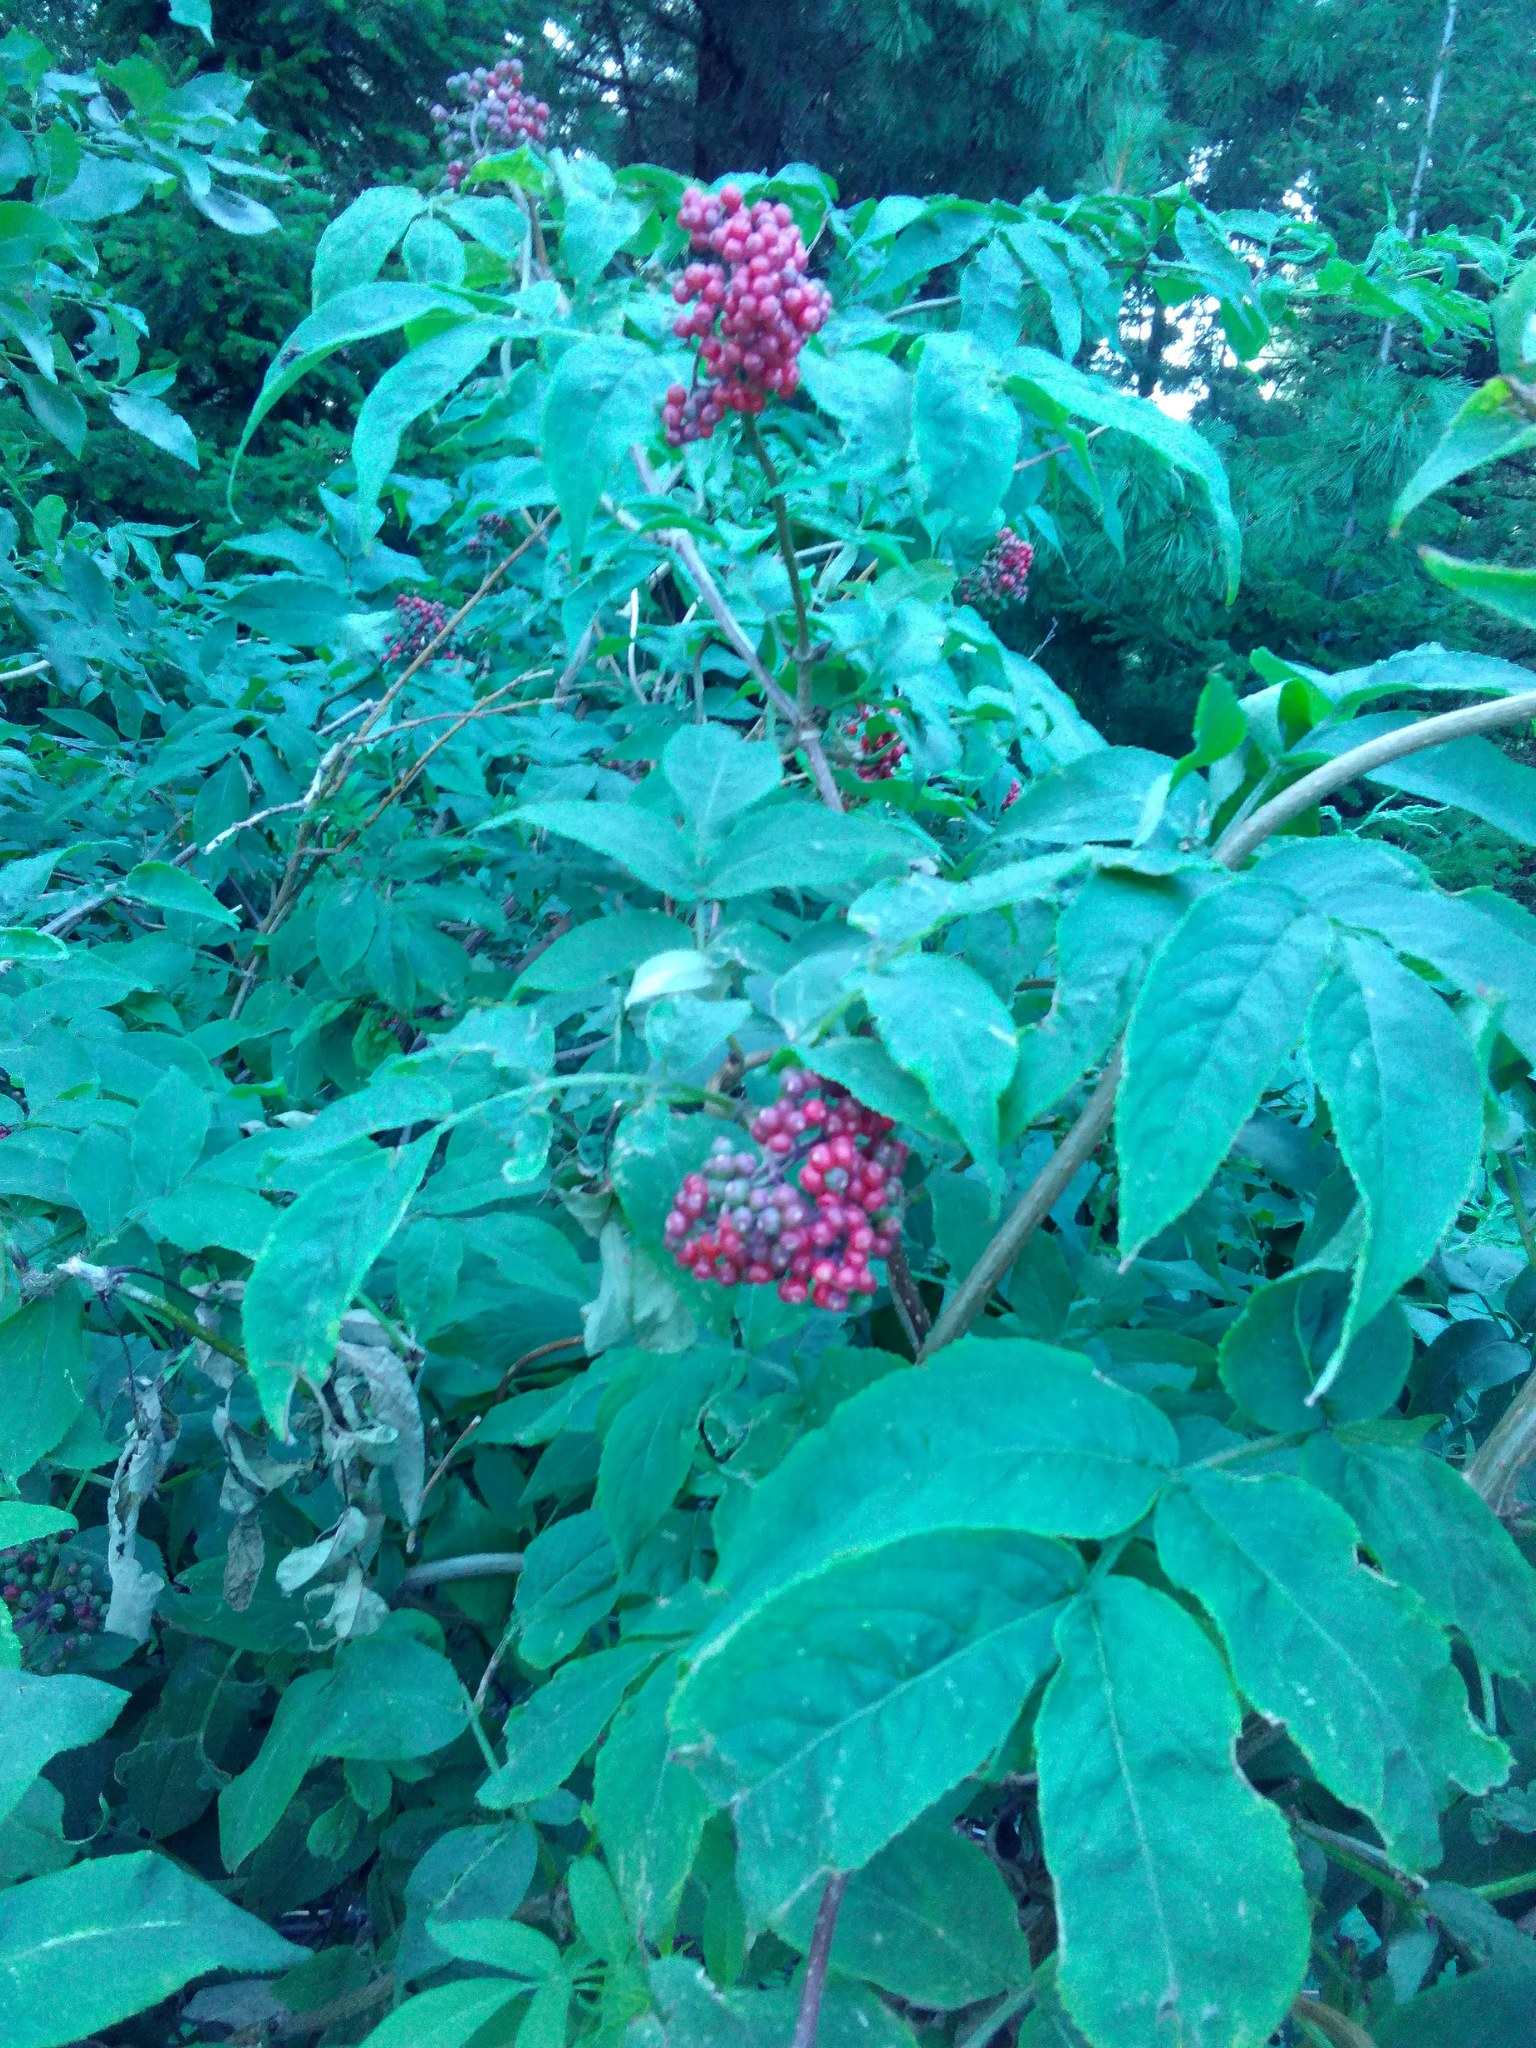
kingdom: Plantae
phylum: Tracheophyta
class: Magnoliopsida
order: Dipsacales
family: Viburnaceae
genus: Sambucus
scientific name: Sambucus sibirica
